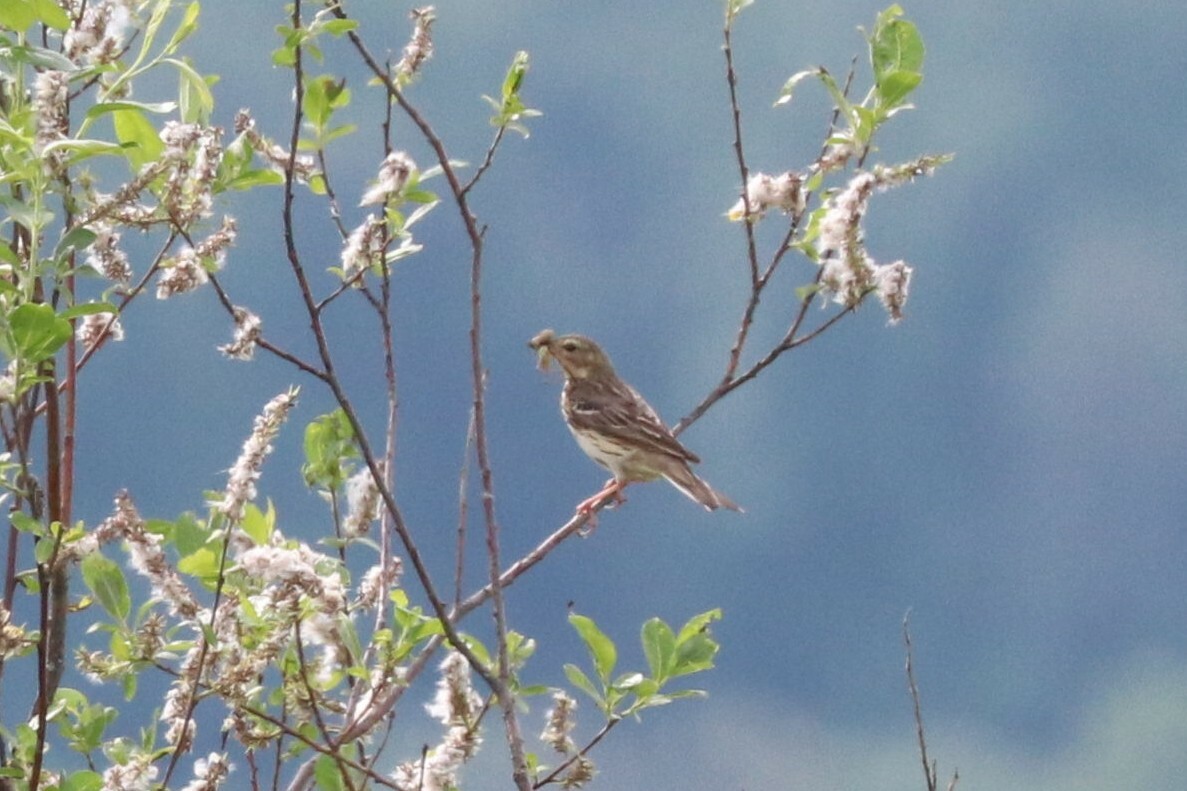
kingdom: Animalia
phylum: Chordata
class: Aves
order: Passeriformes
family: Motacillidae
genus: Anthus
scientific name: Anthus trivialis
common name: Tree pipit
